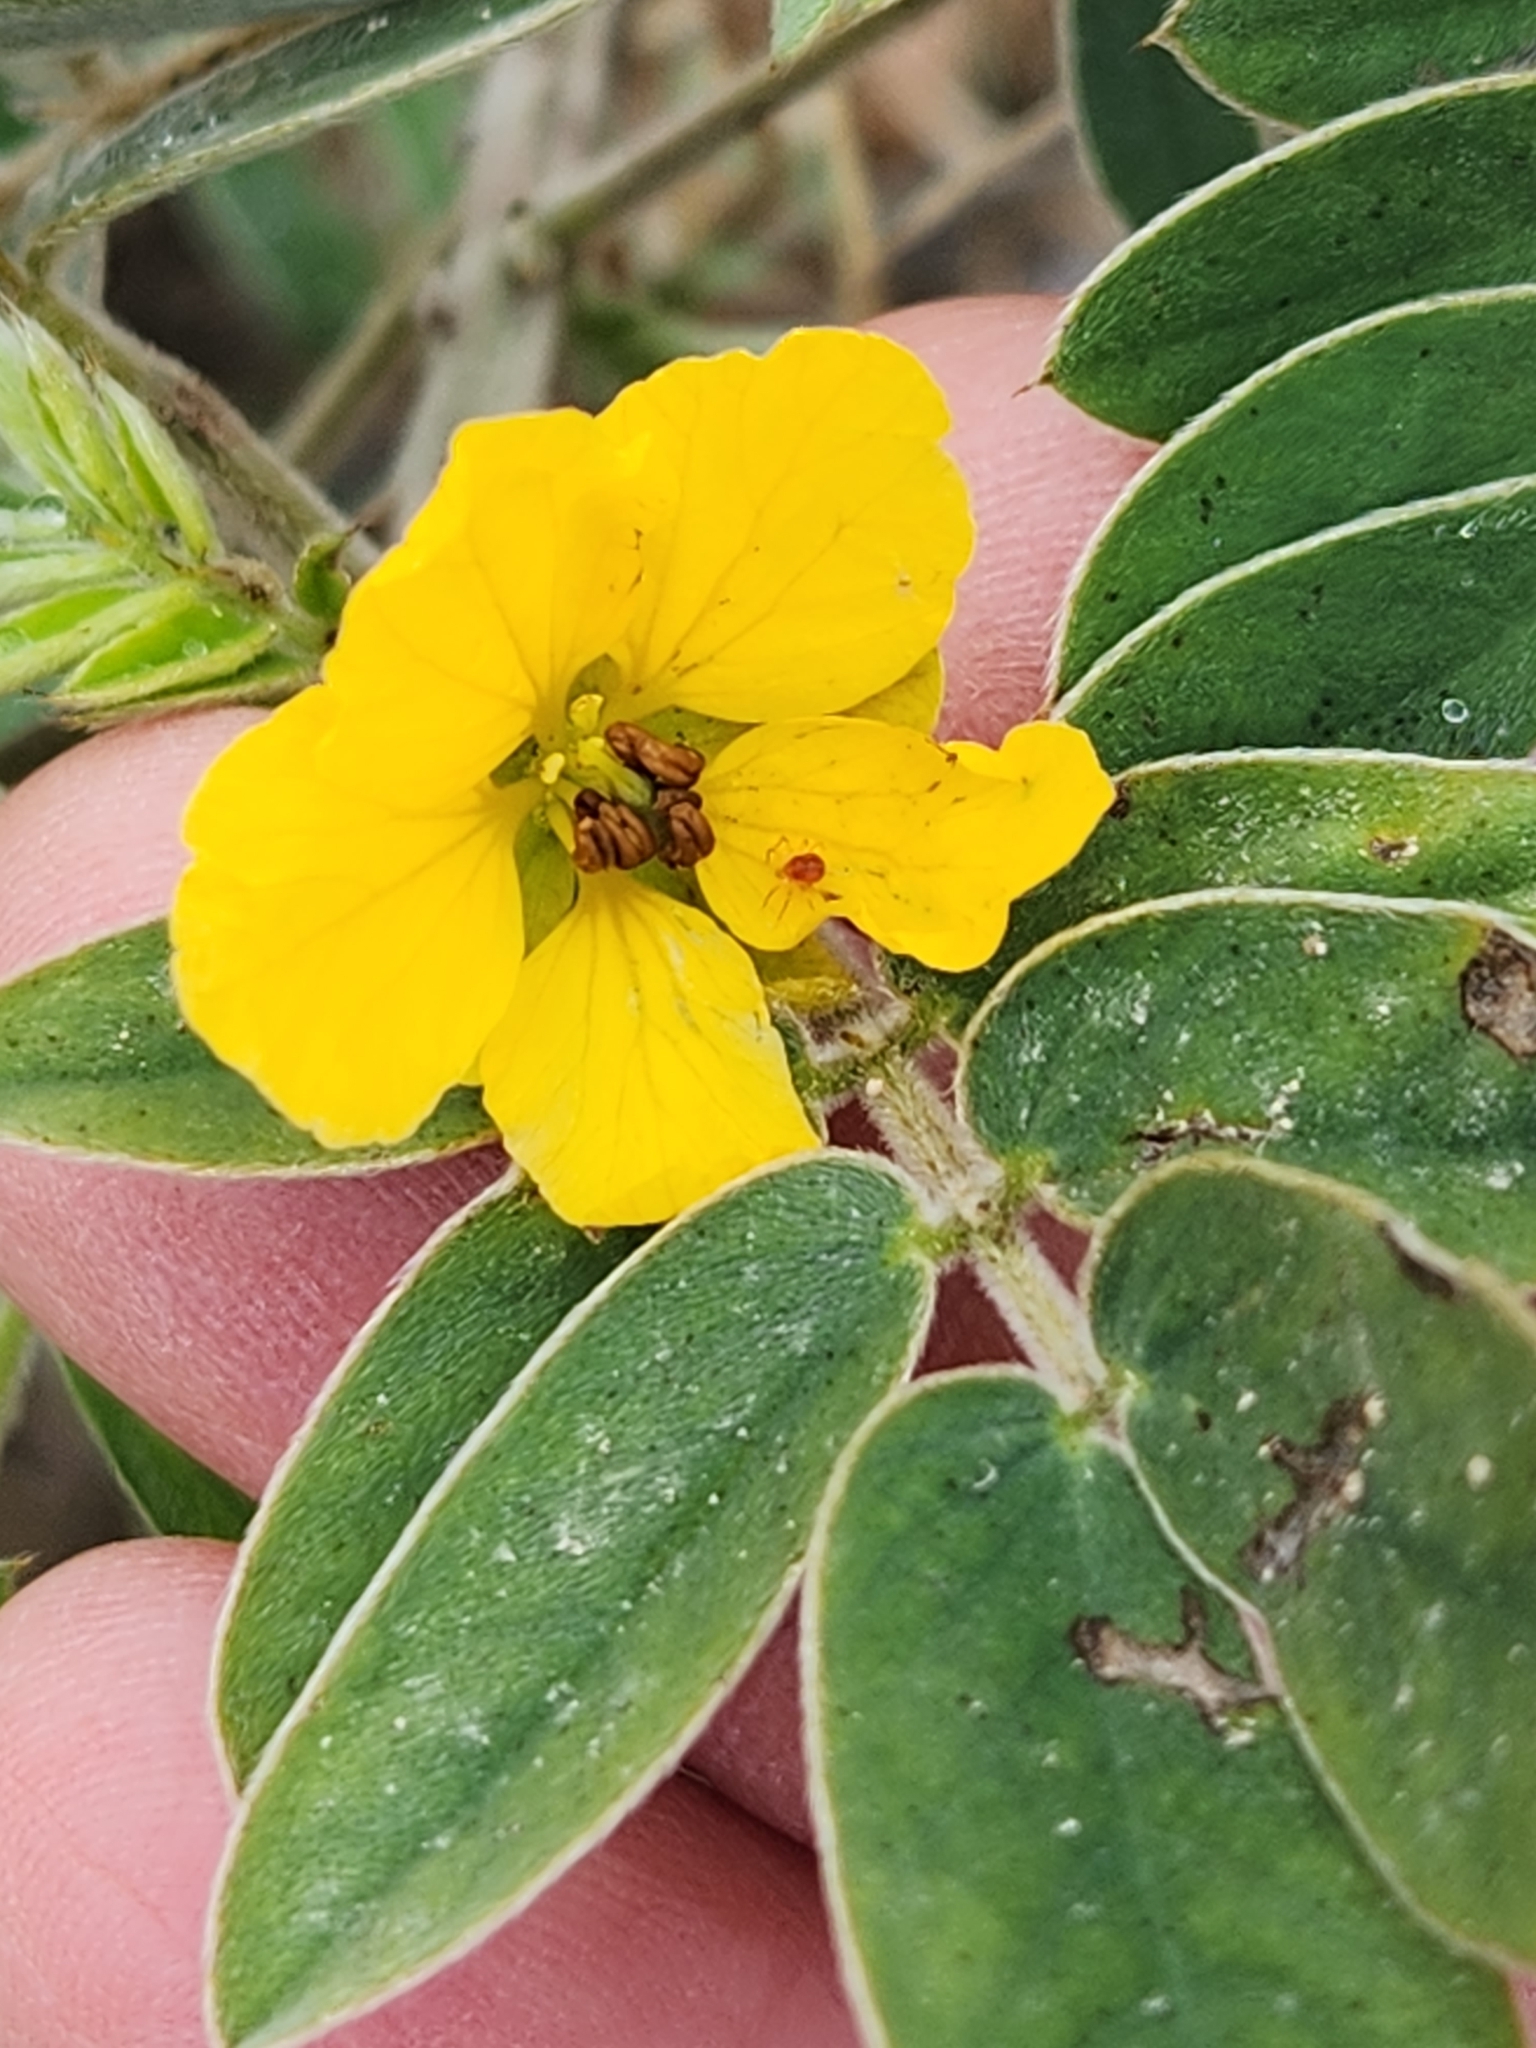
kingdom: Plantae
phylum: Tracheophyta
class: Magnoliopsida
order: Fabales
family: Fabaceae
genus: Senna
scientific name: Senna lindheimeriana
